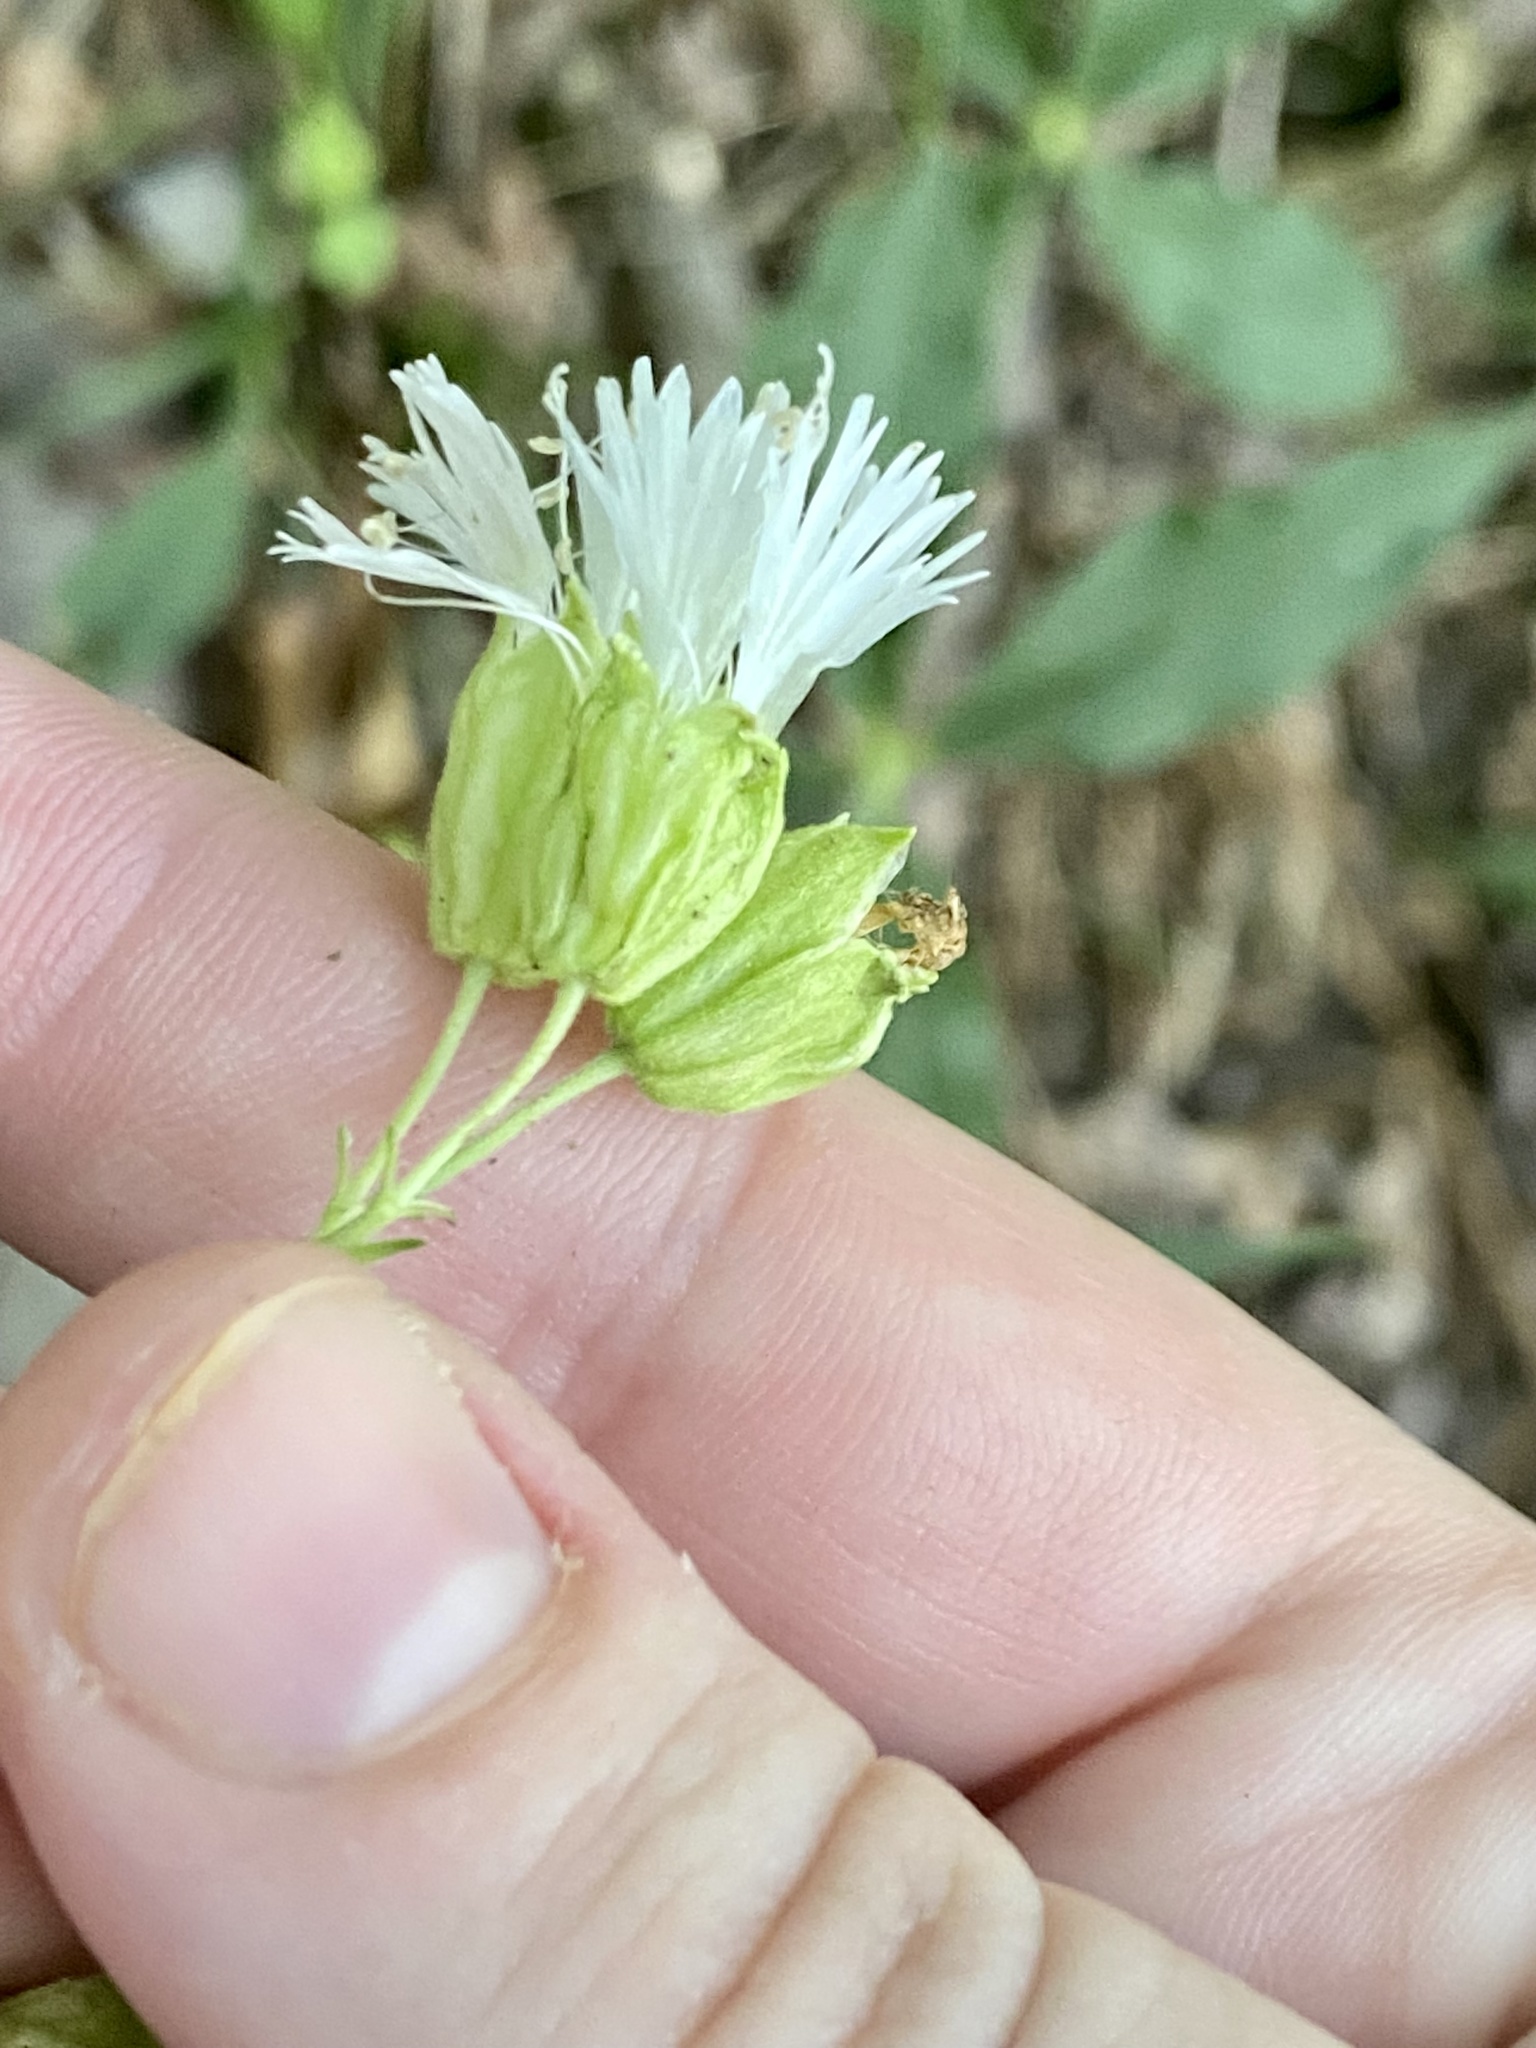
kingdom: Plantae
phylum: Tracheophyta
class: Magnoliopsida
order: Caryophyllales
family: Caryophyllaceae
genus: Silene
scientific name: Silene stellata
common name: Starry campion
